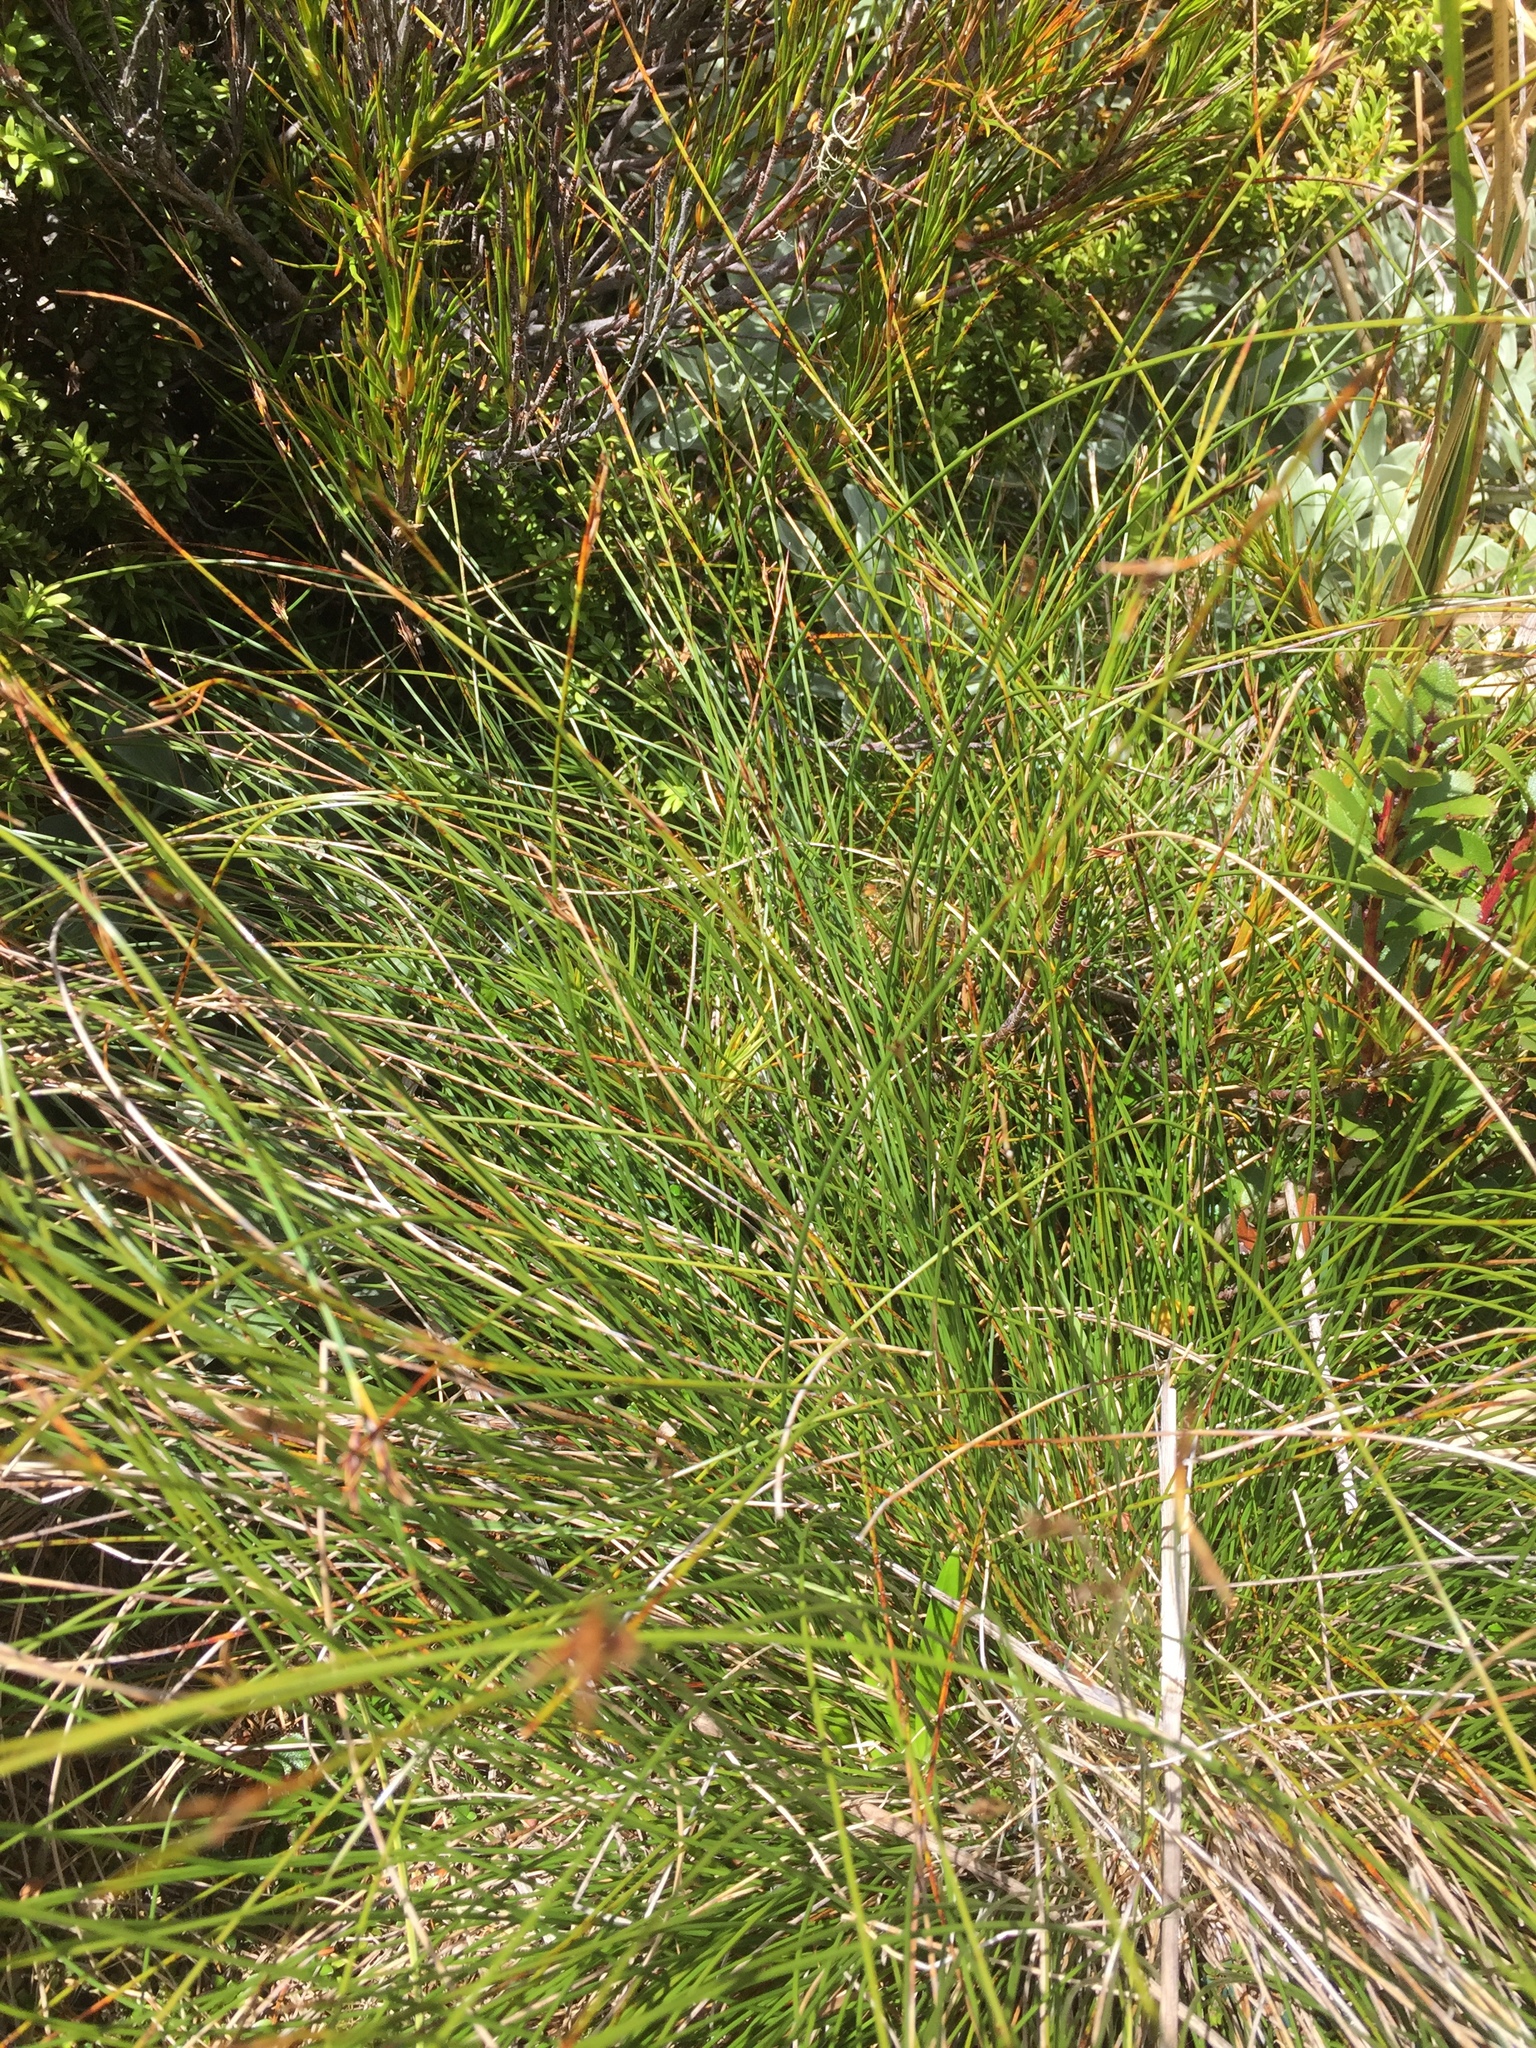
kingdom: Plantae
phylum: Tracheophyta
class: Liliopsida
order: Poales
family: Cyperaceae
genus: Schoenus
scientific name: Schoenus pauciflorus
